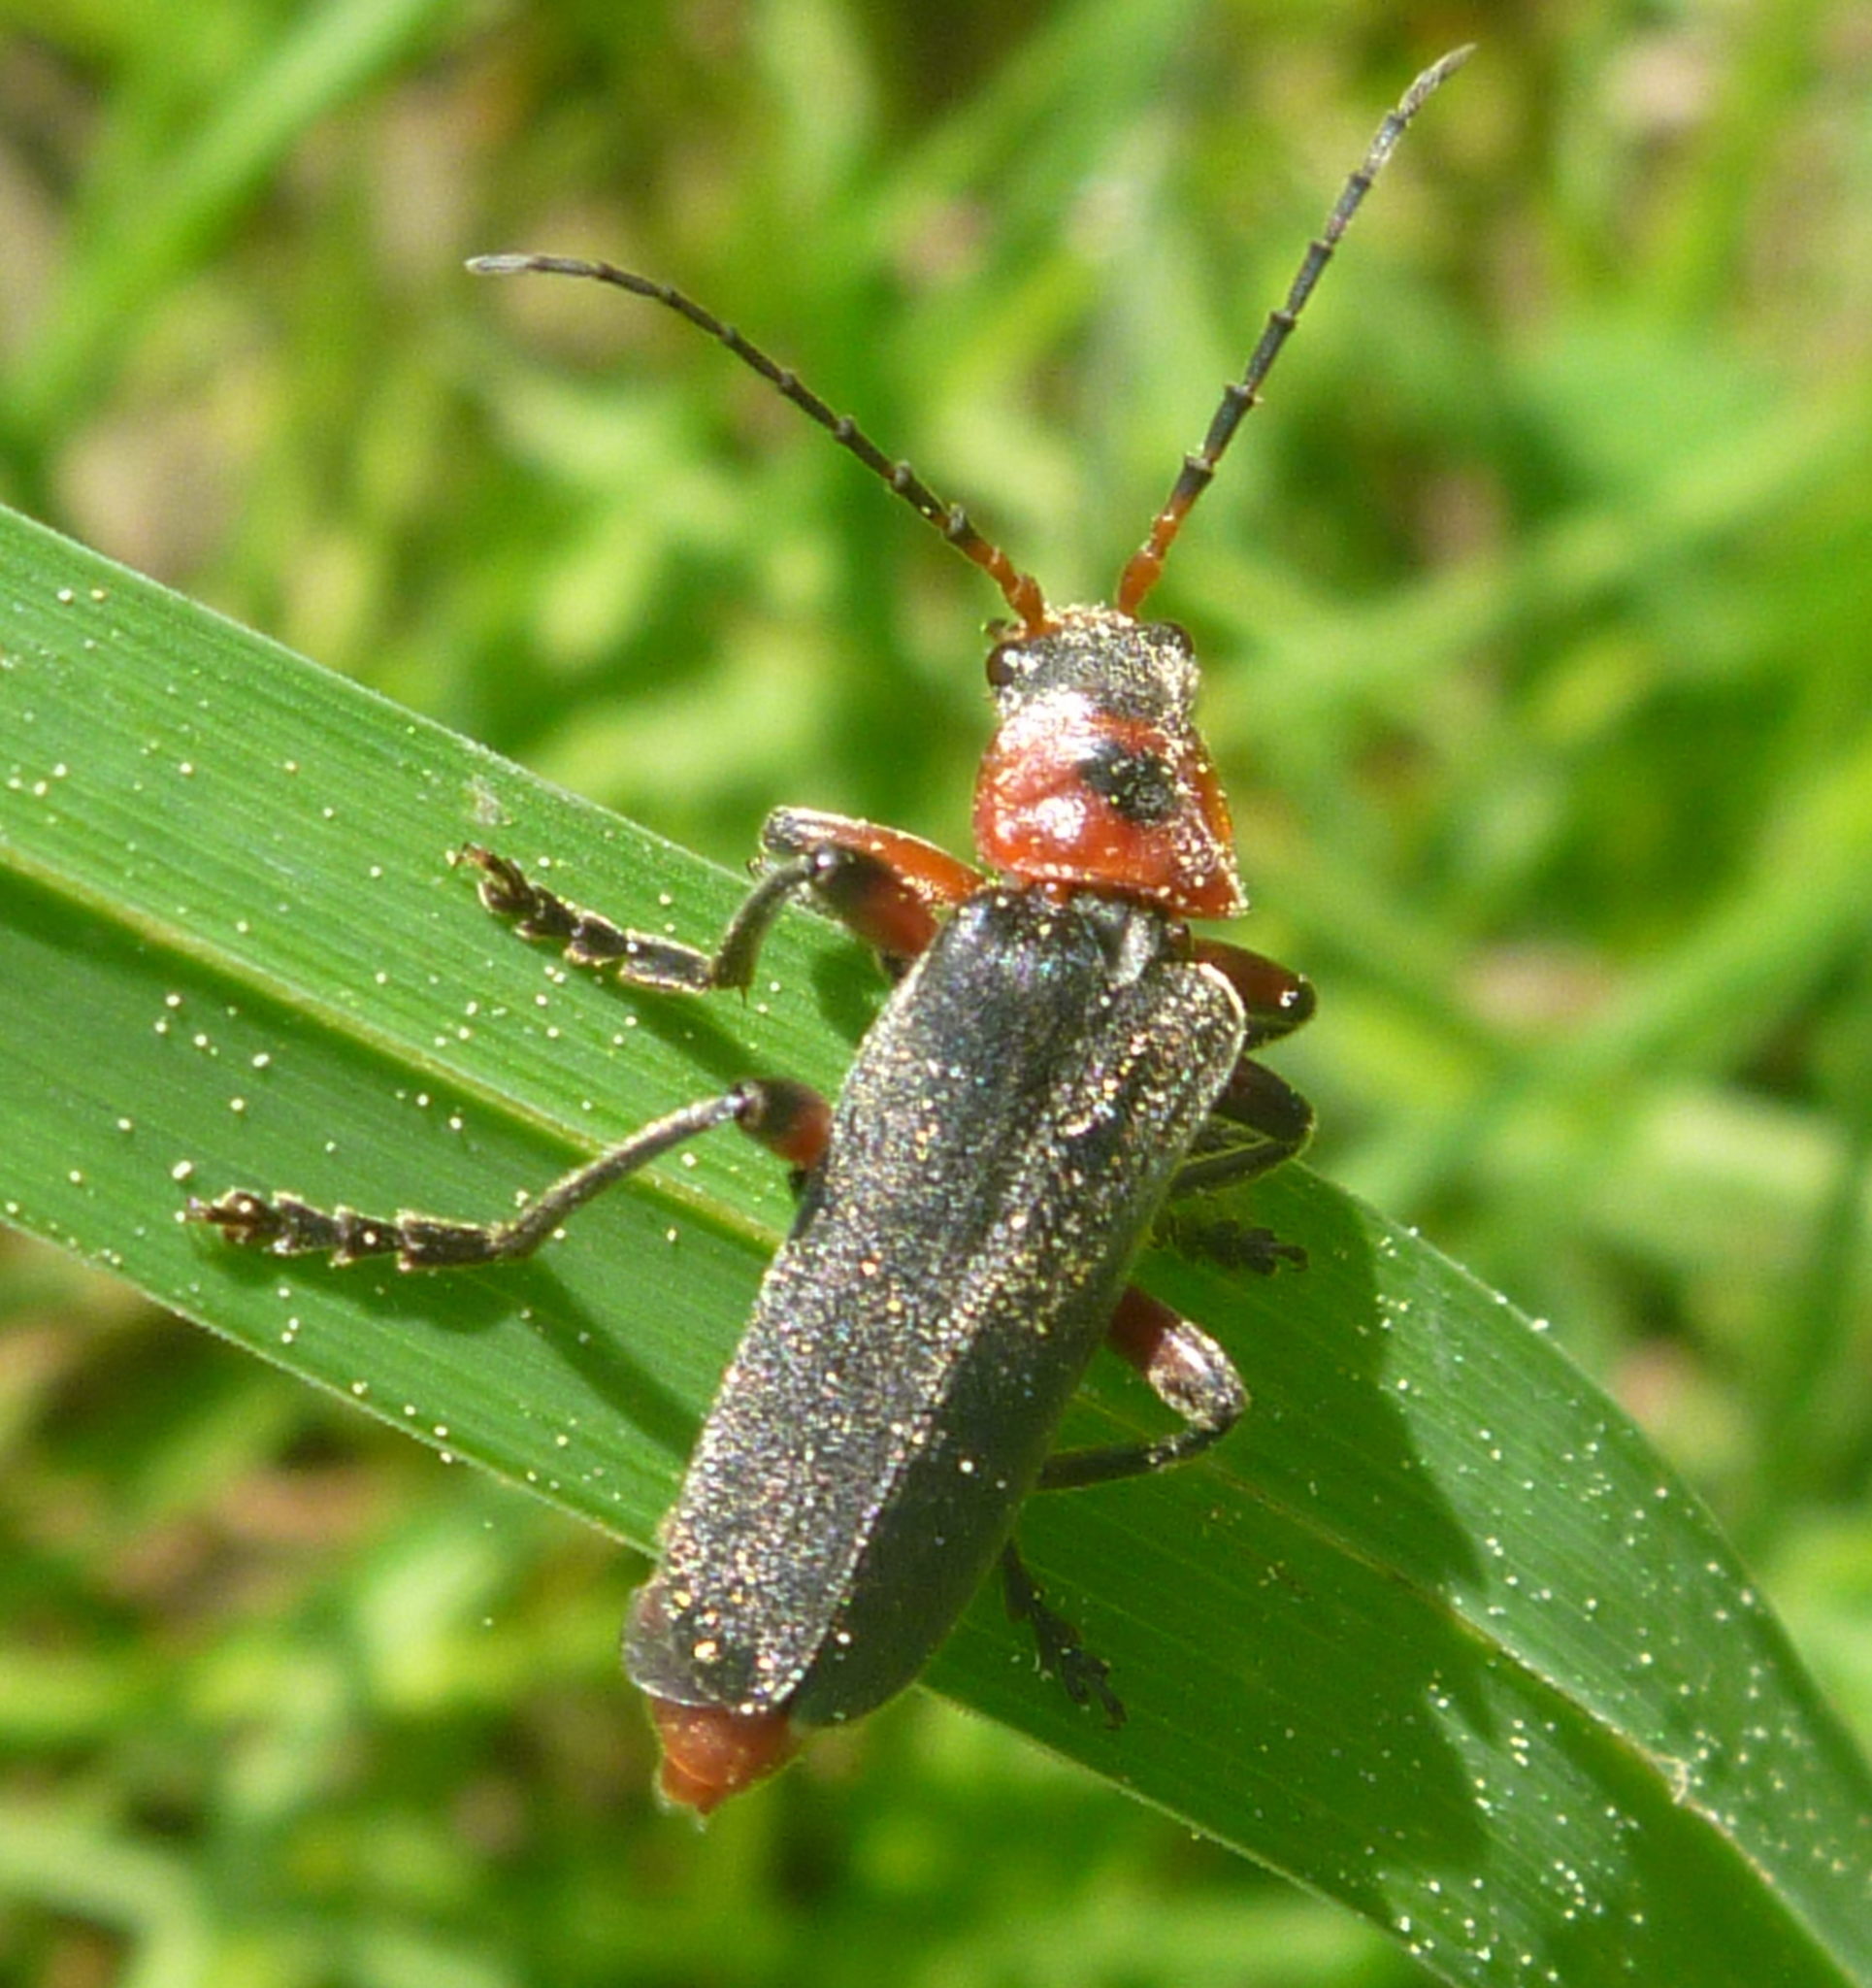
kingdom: Animalia
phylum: Arthropoda
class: Insecta
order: Coleoptera
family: Cantharidae
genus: Cantharis
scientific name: Cantharis rustica
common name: Soldier beetle
